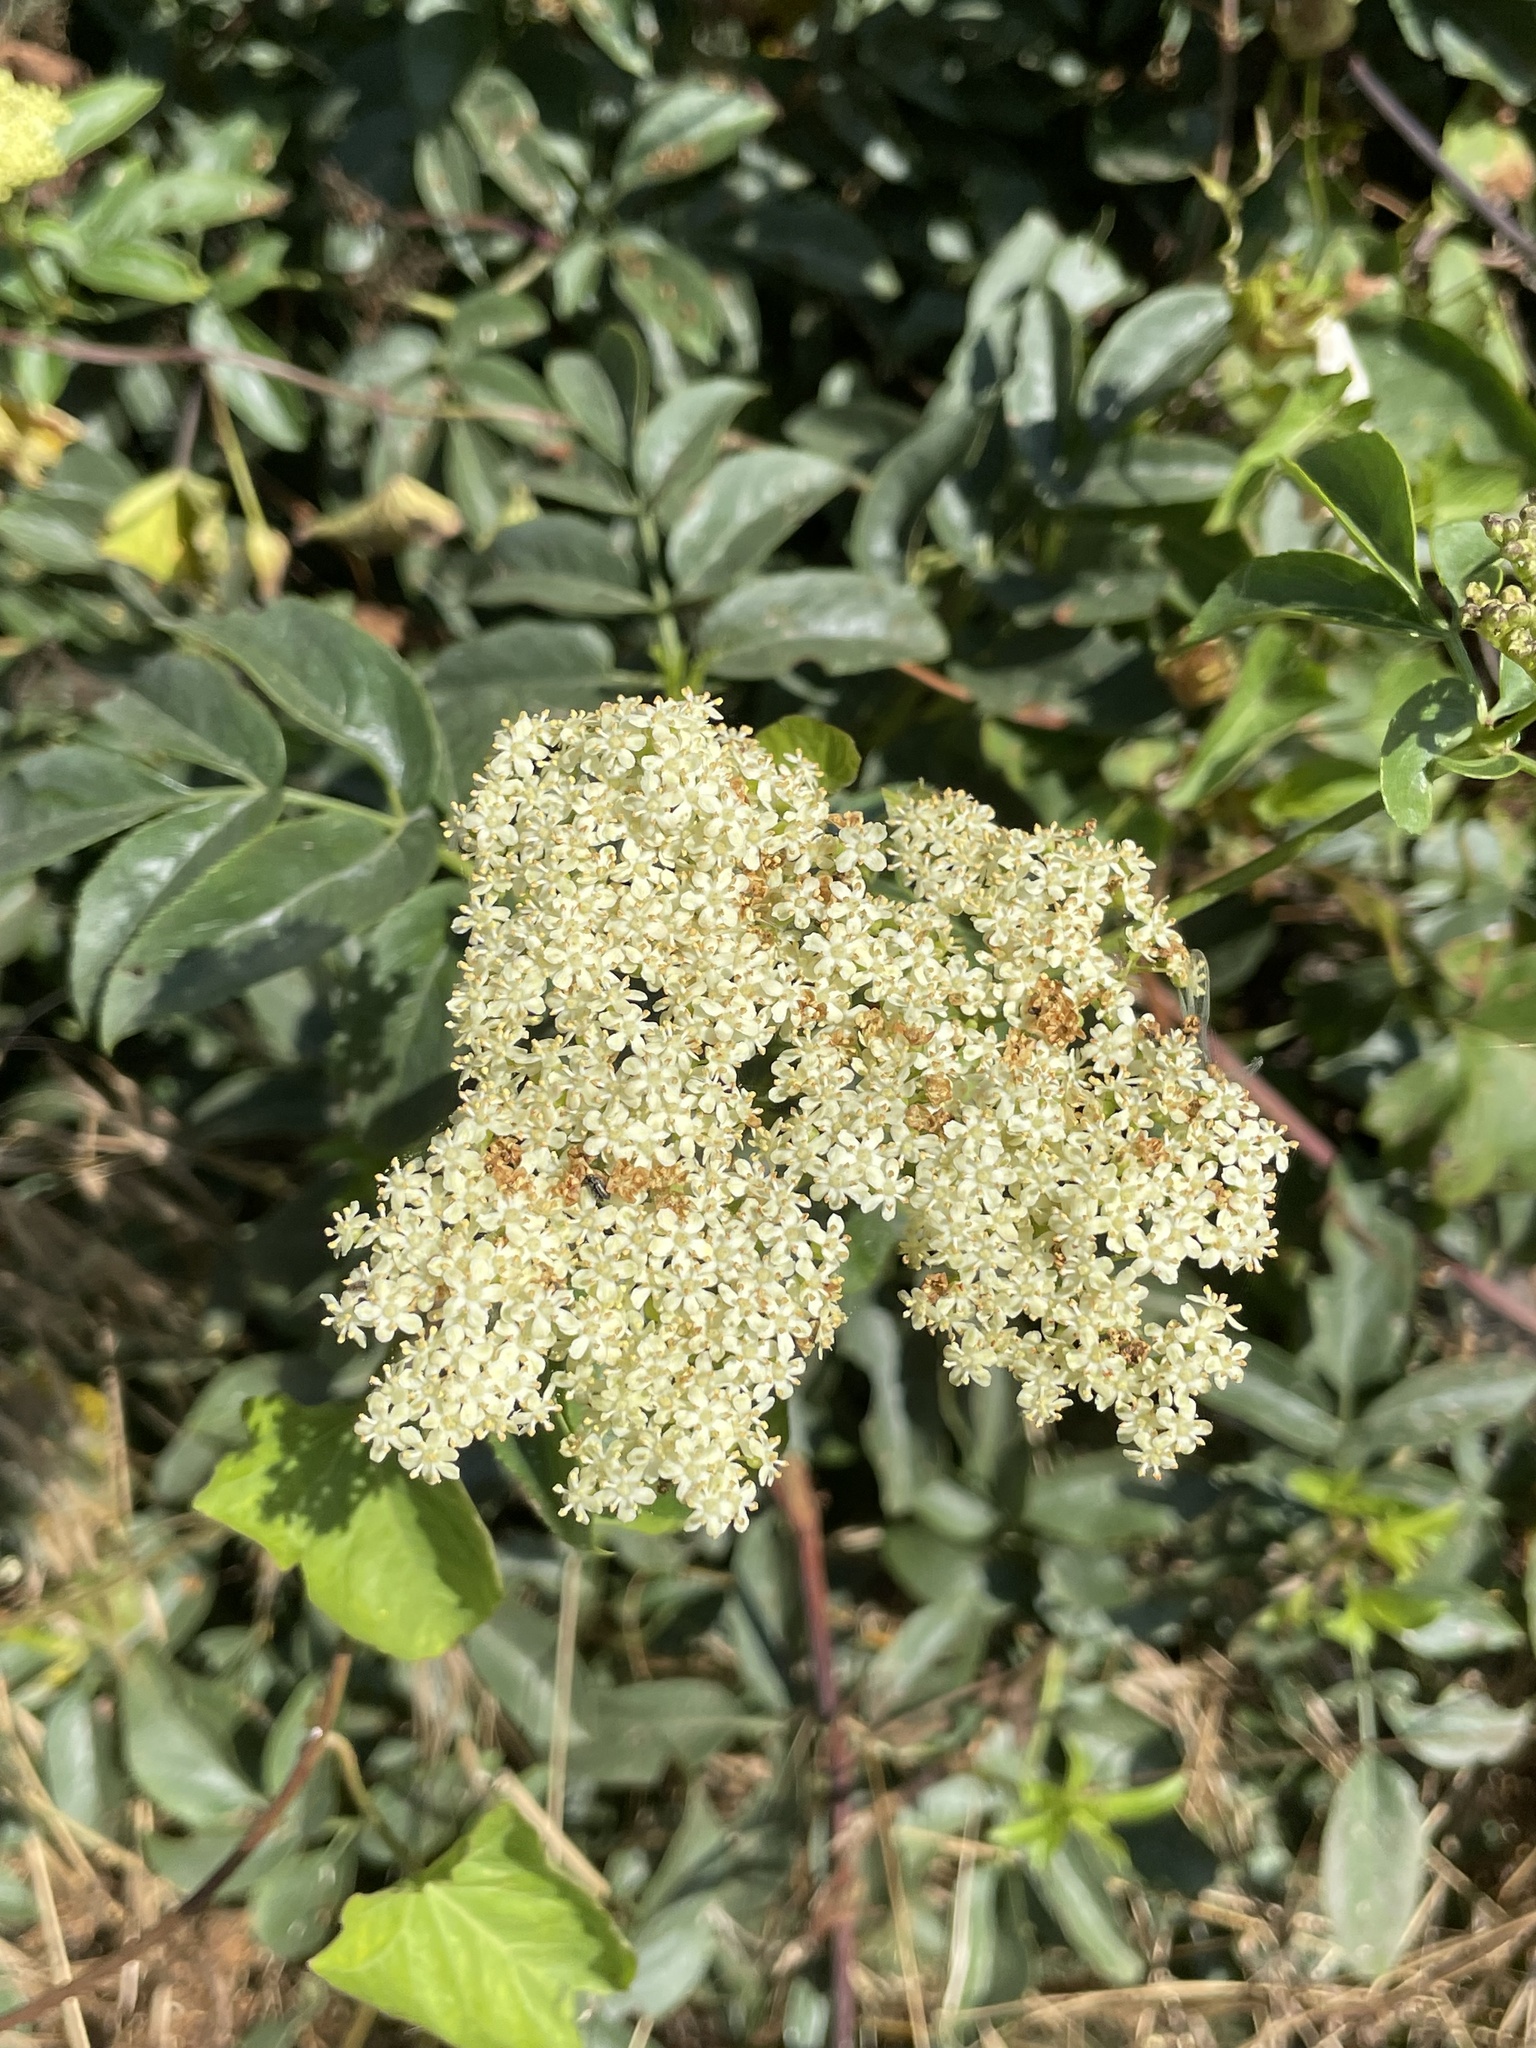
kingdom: Plantae
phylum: Tracheophyta
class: Magnoliopsida
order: Dipsacales
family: Viburnaceae
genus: Sambucus
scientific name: Sambucus cerulea
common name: Blue elder
